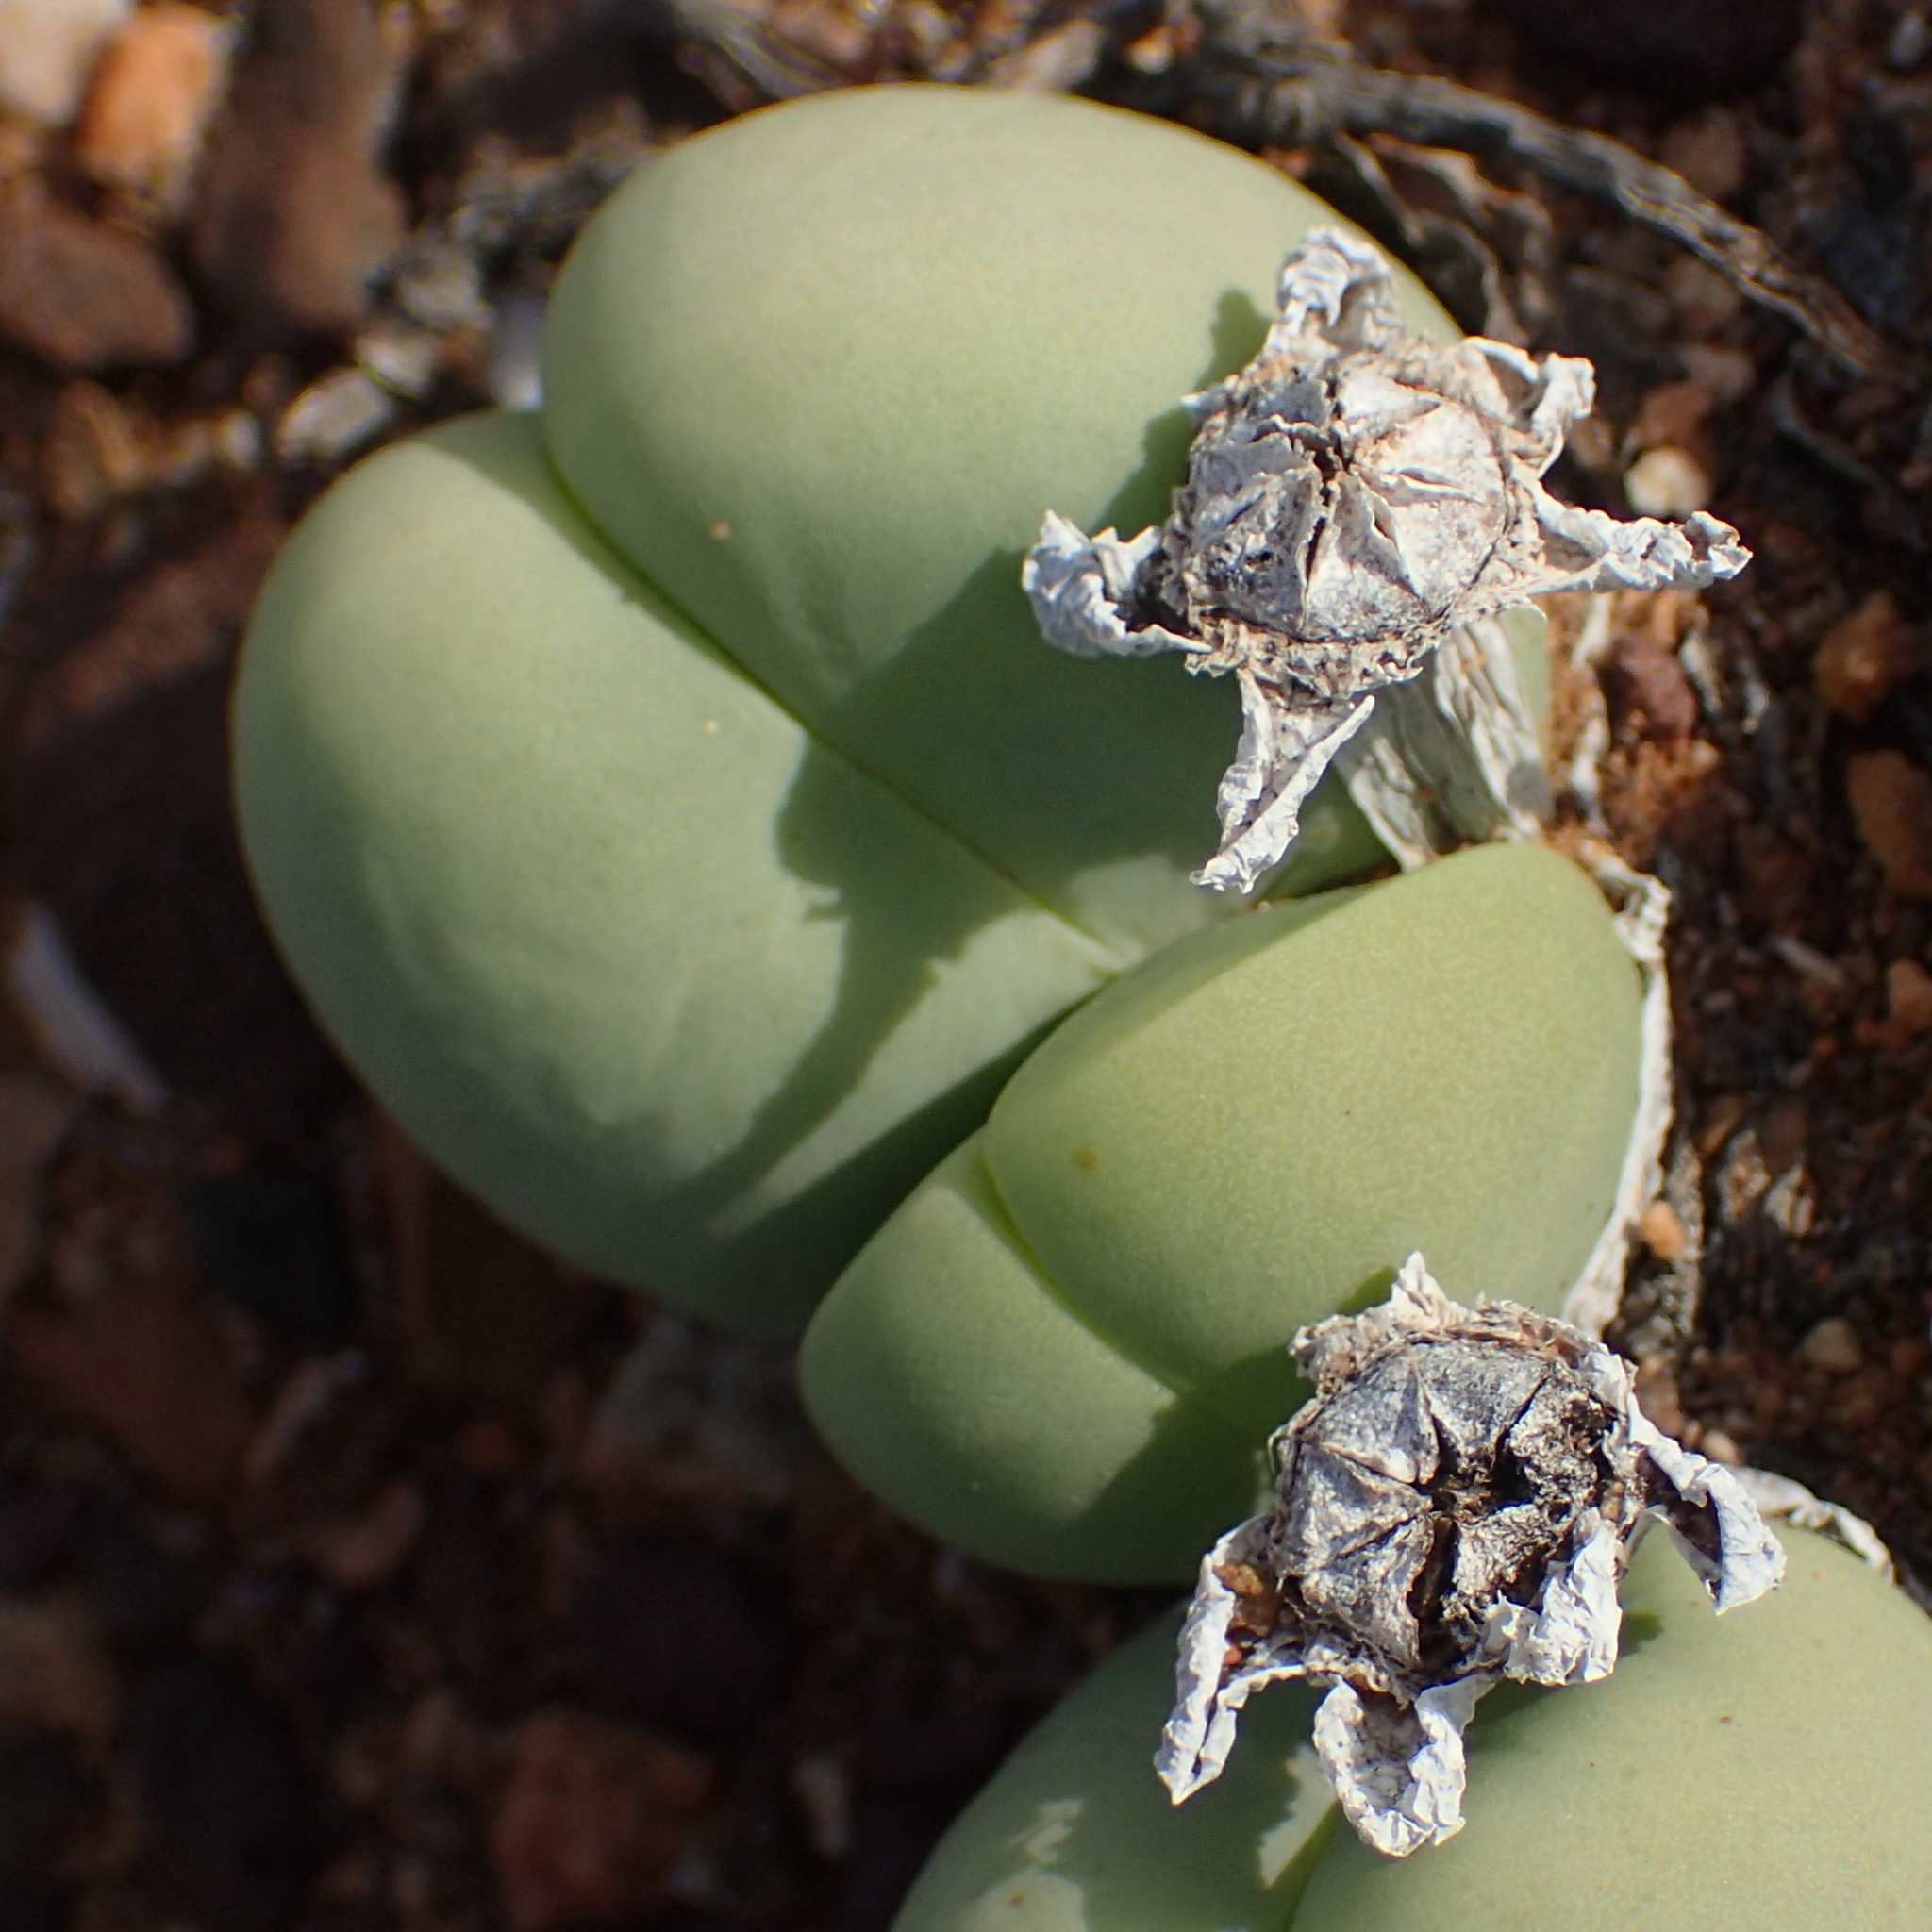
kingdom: Plantae
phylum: Tracheophyta
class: Magnoliopsida
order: Caryophyllales
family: Aizoaceae
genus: Gibbaeum
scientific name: Gibbaeum heathii
